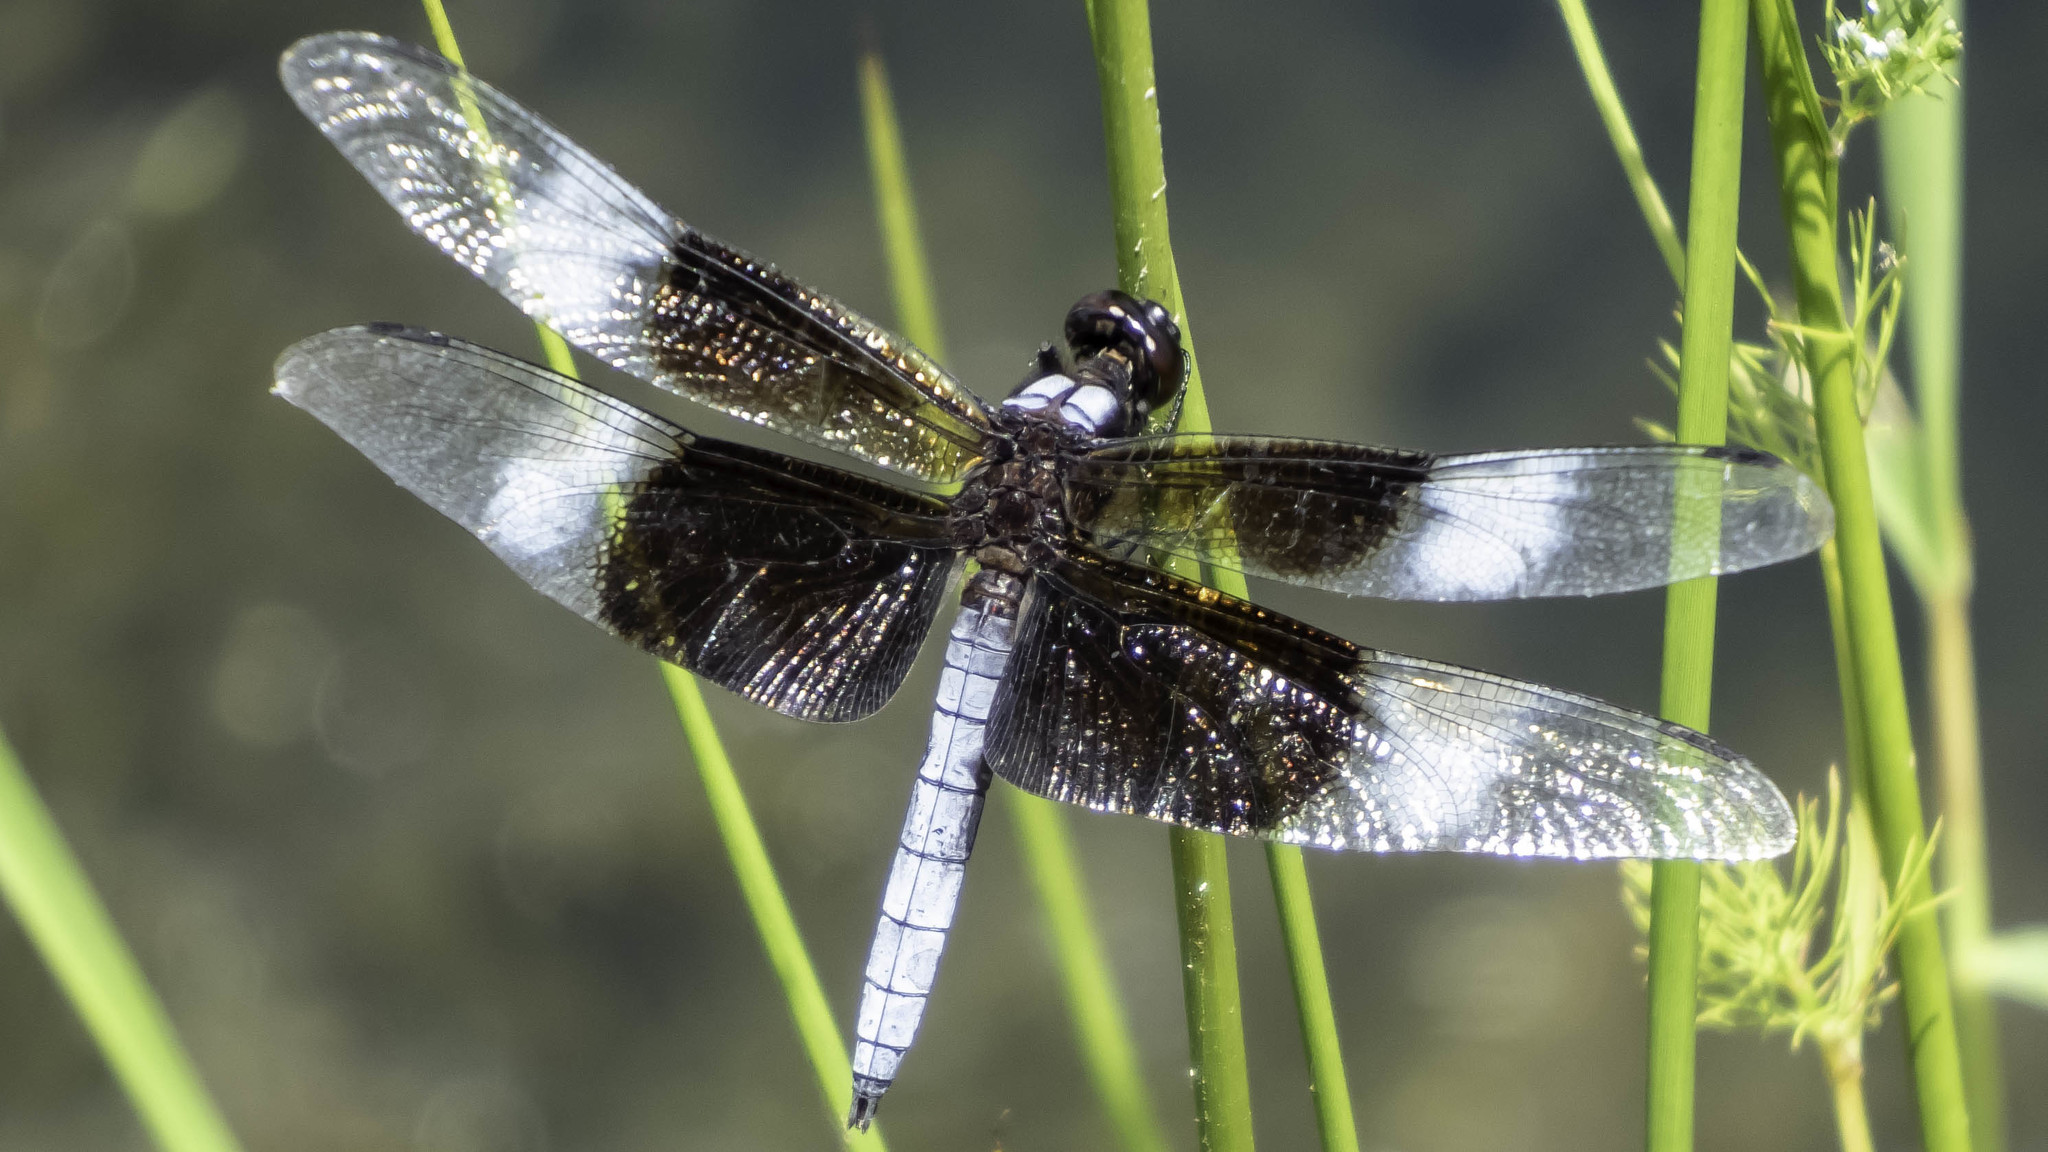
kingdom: Animalia
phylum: Arthropoda
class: Insecta
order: Odonata
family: Libellulidae
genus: Libellula
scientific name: Libellula luctuosa
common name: Widow skimmer
